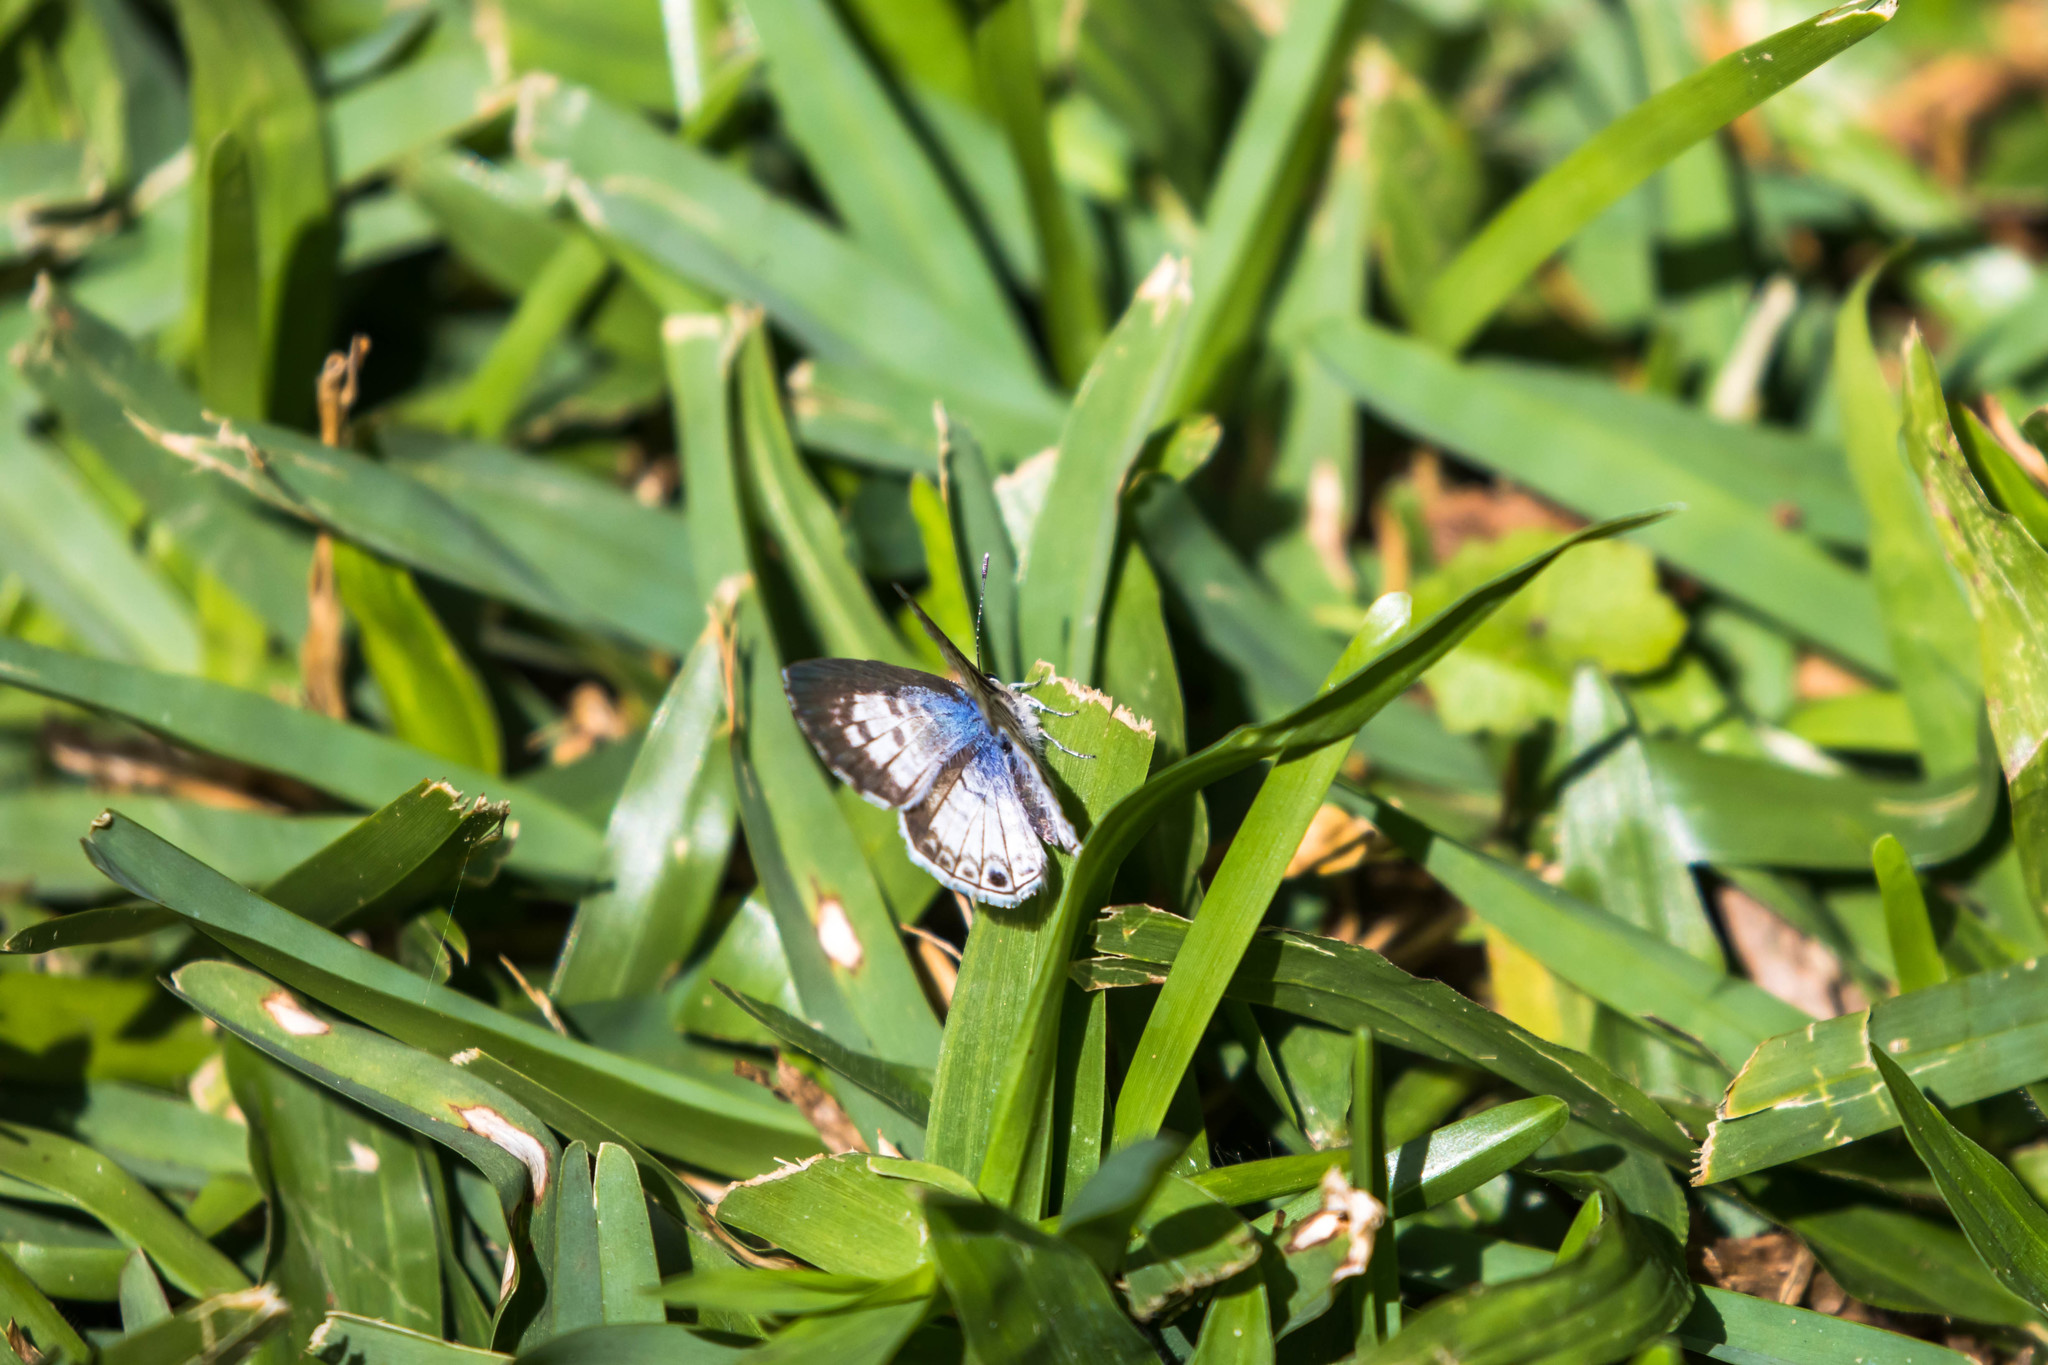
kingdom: Animalia
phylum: Arthropoda
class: Insecta
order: Lepidoptera
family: Lycaenidae
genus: Leptotes
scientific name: Leptotes cassius
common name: Cassius blue
